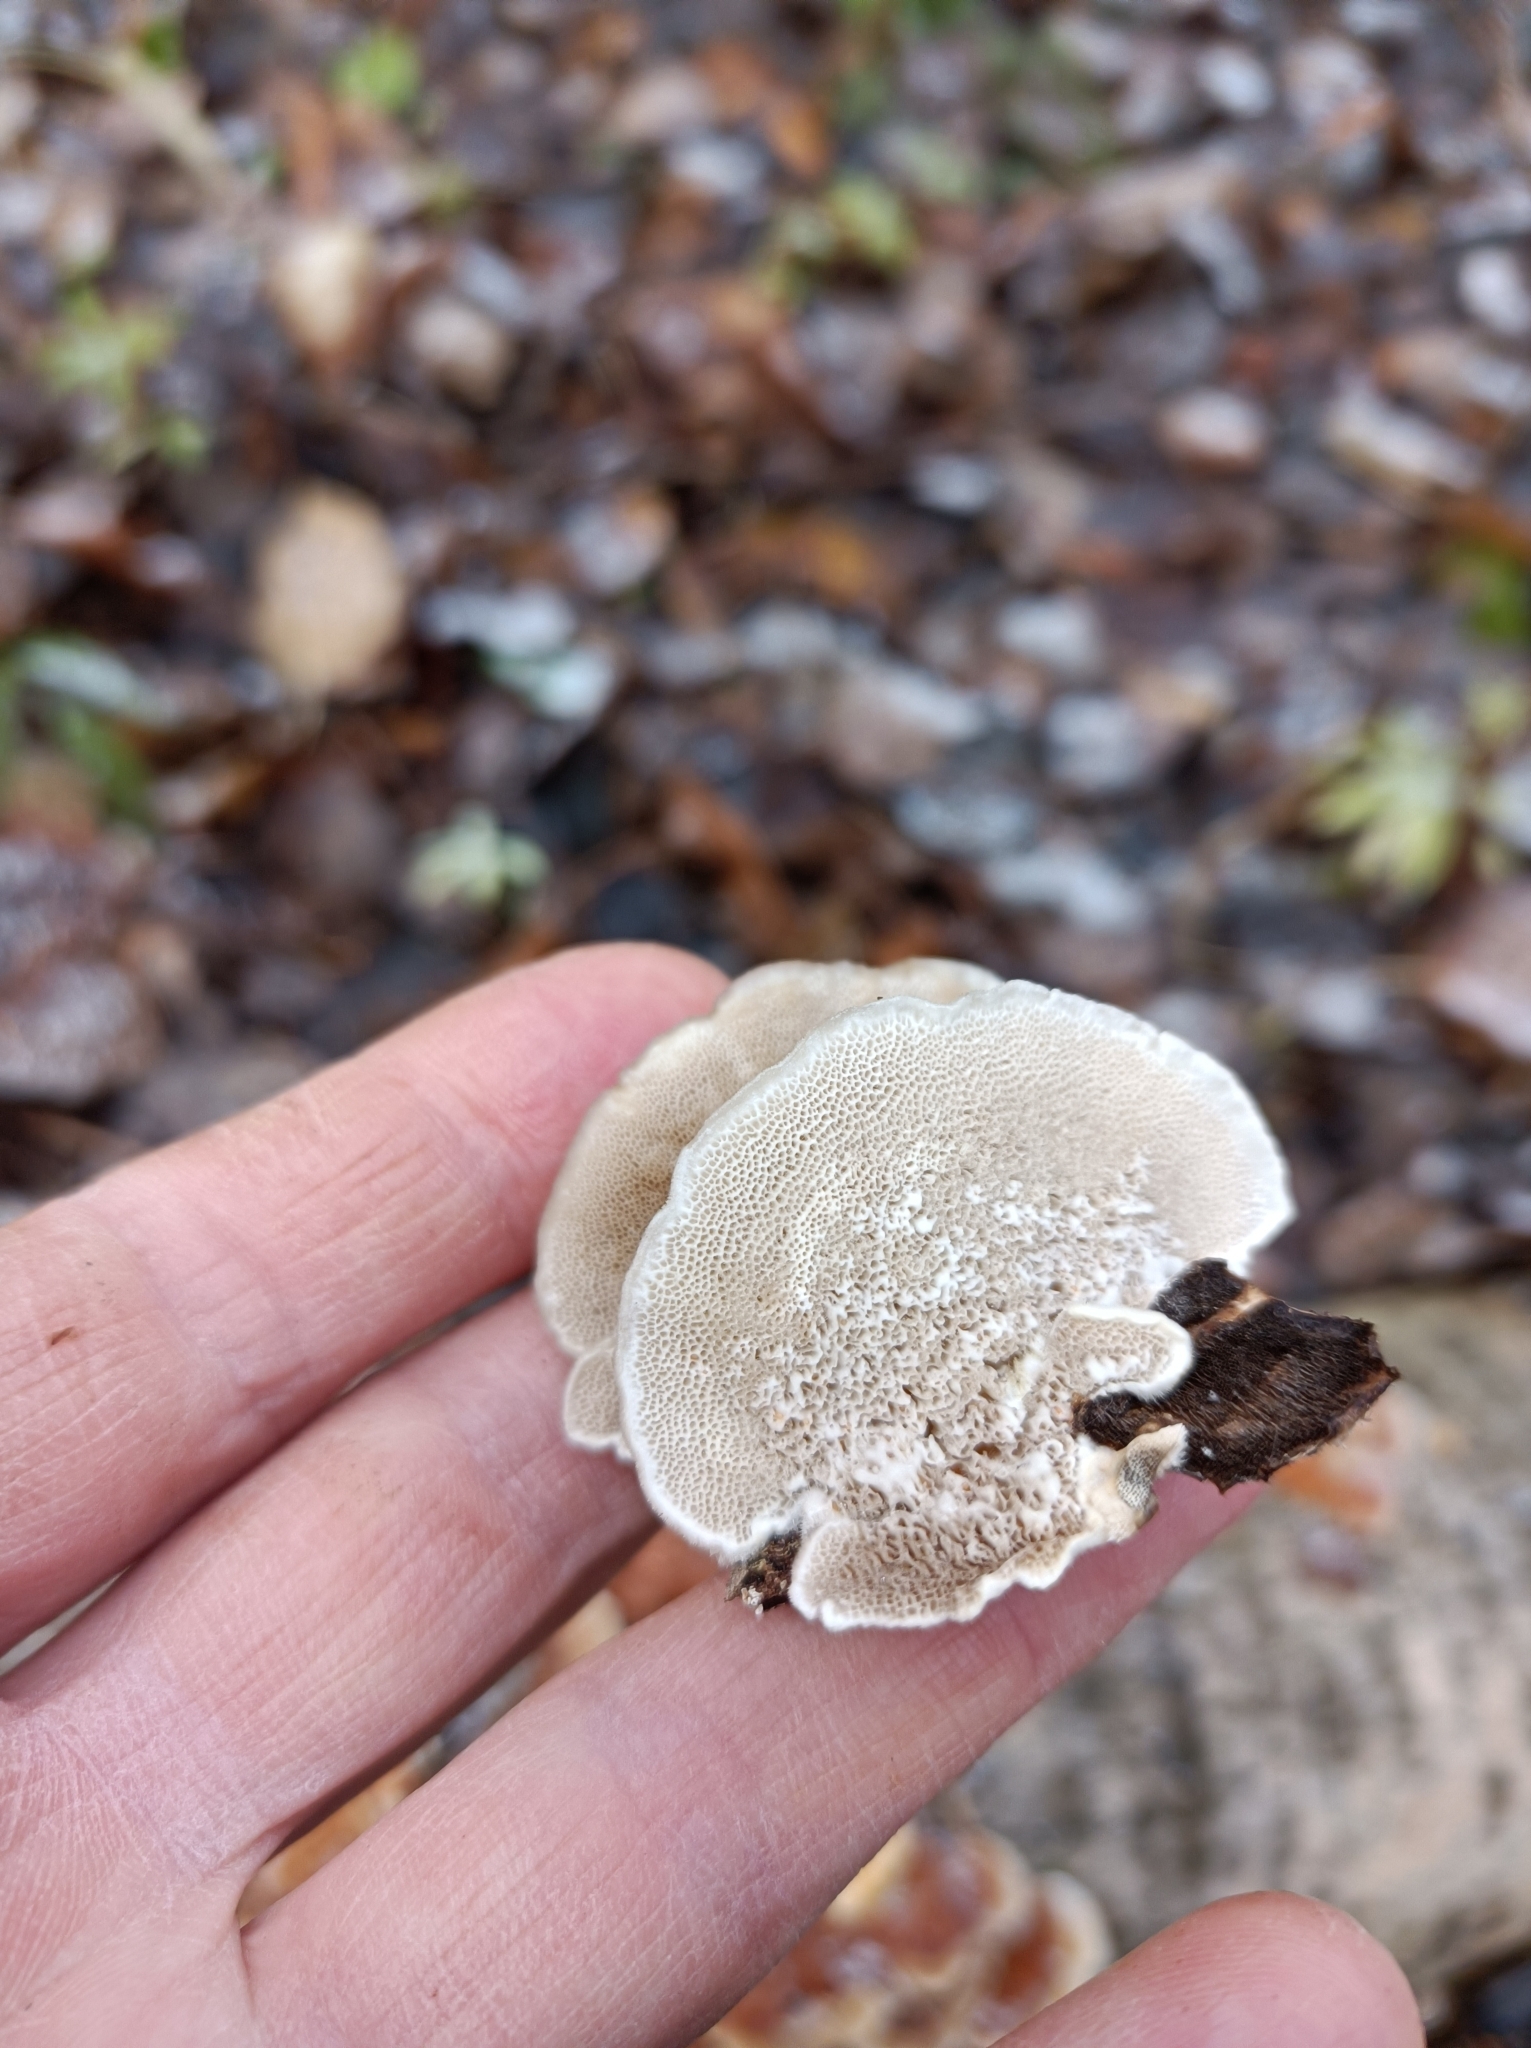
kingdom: Fungi
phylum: Basidiomycota
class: Agaricomycetes
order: Polyporales
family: Polyporaceae
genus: Trametes
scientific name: Trametes ochracea
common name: Ochre bracket
